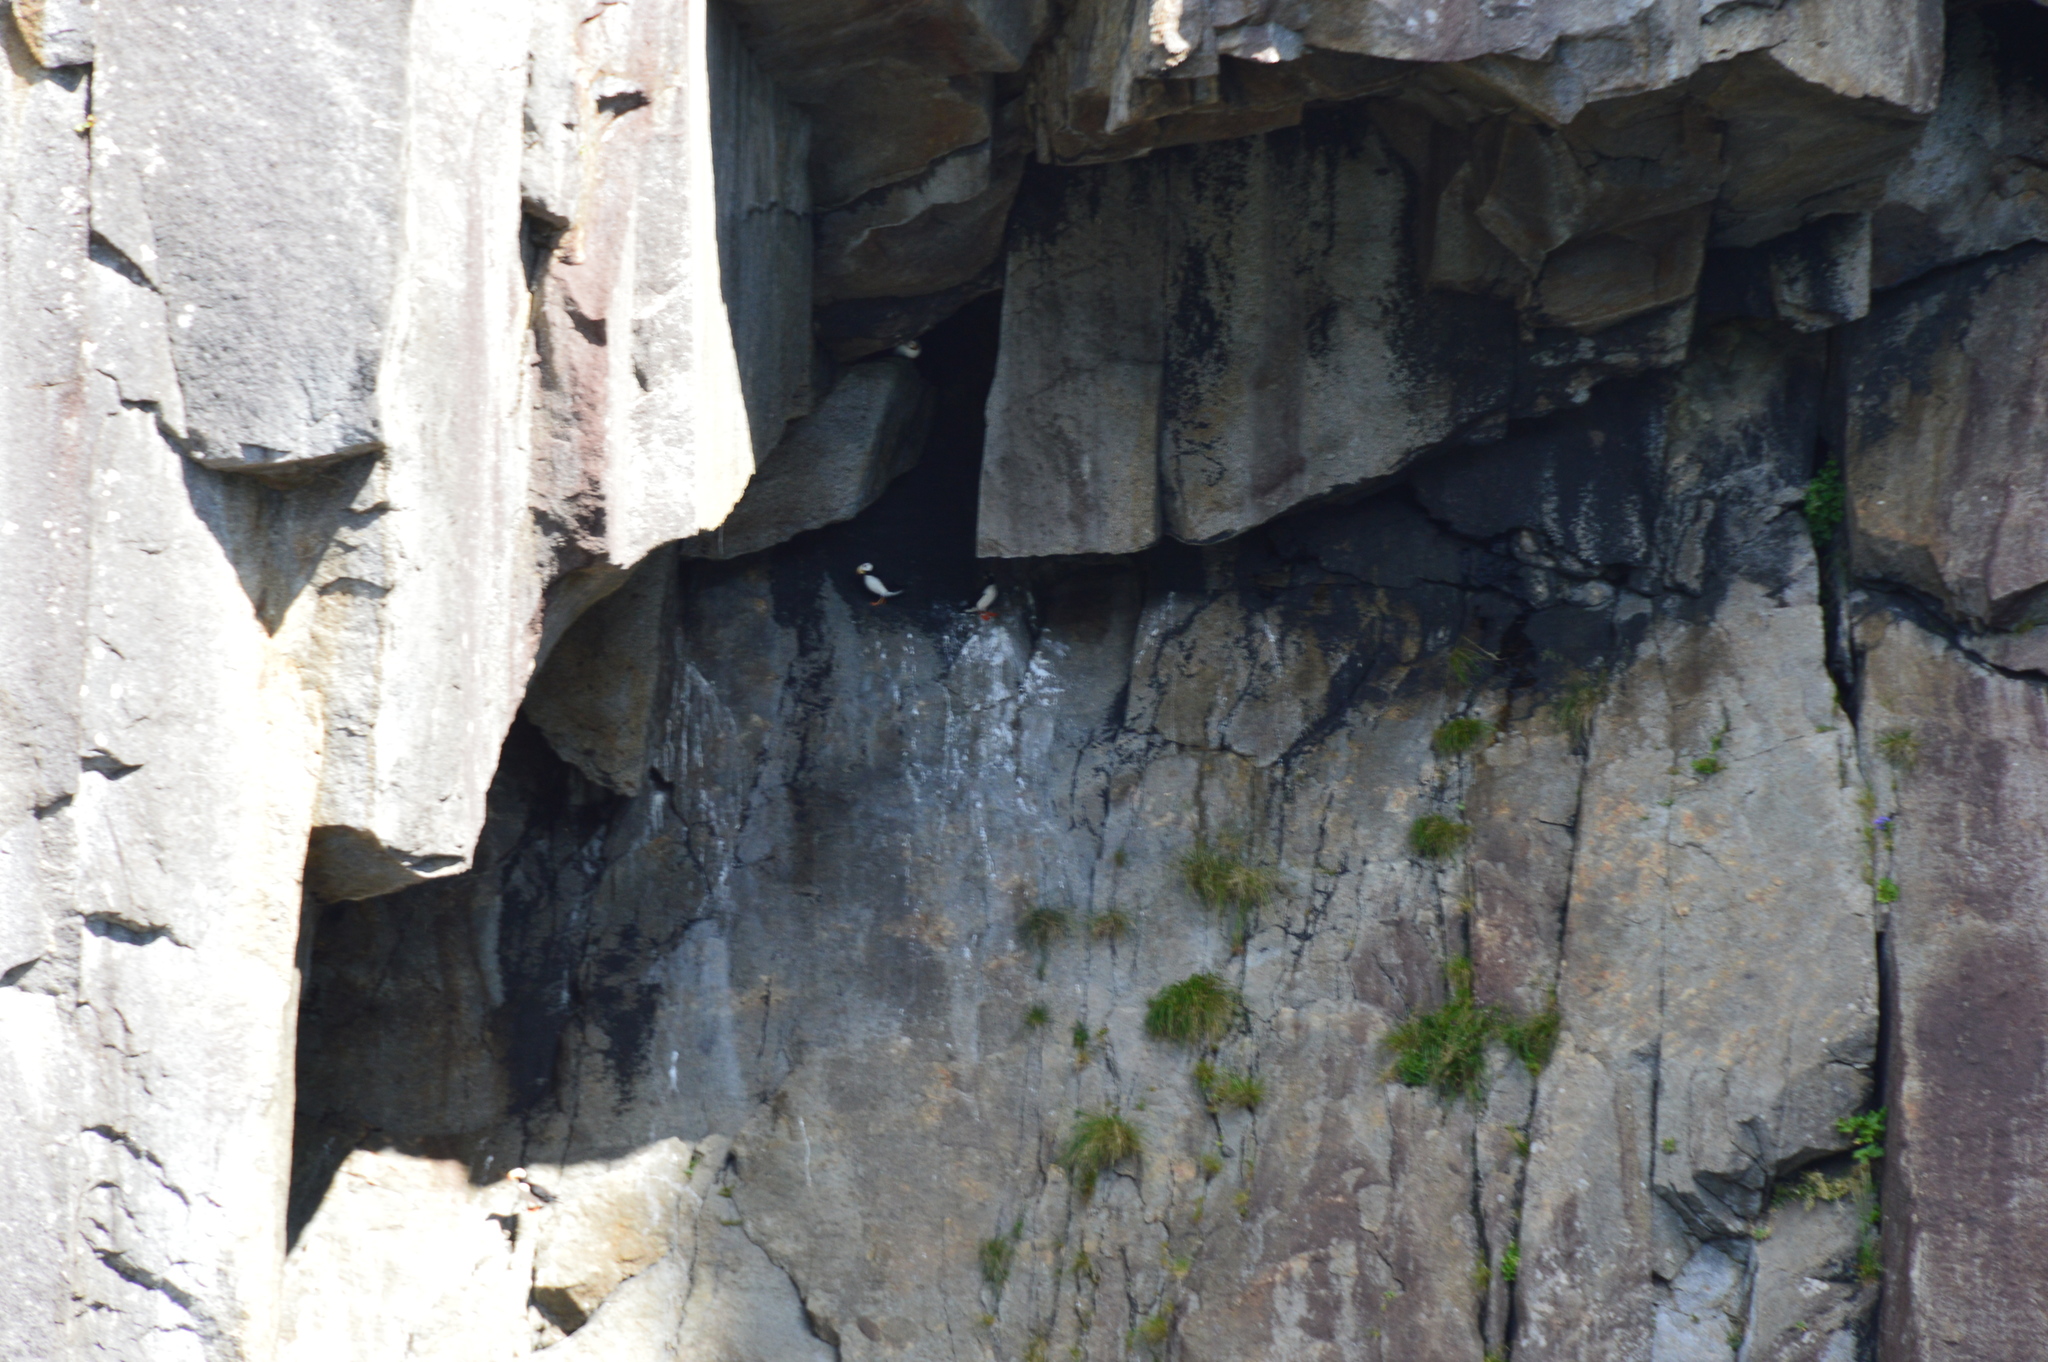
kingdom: Animalia
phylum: Chordata
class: Aves
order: Charadriiformes
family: Alcidae
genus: Fratercula
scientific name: Fratercula corniculata
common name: Horned puffin
